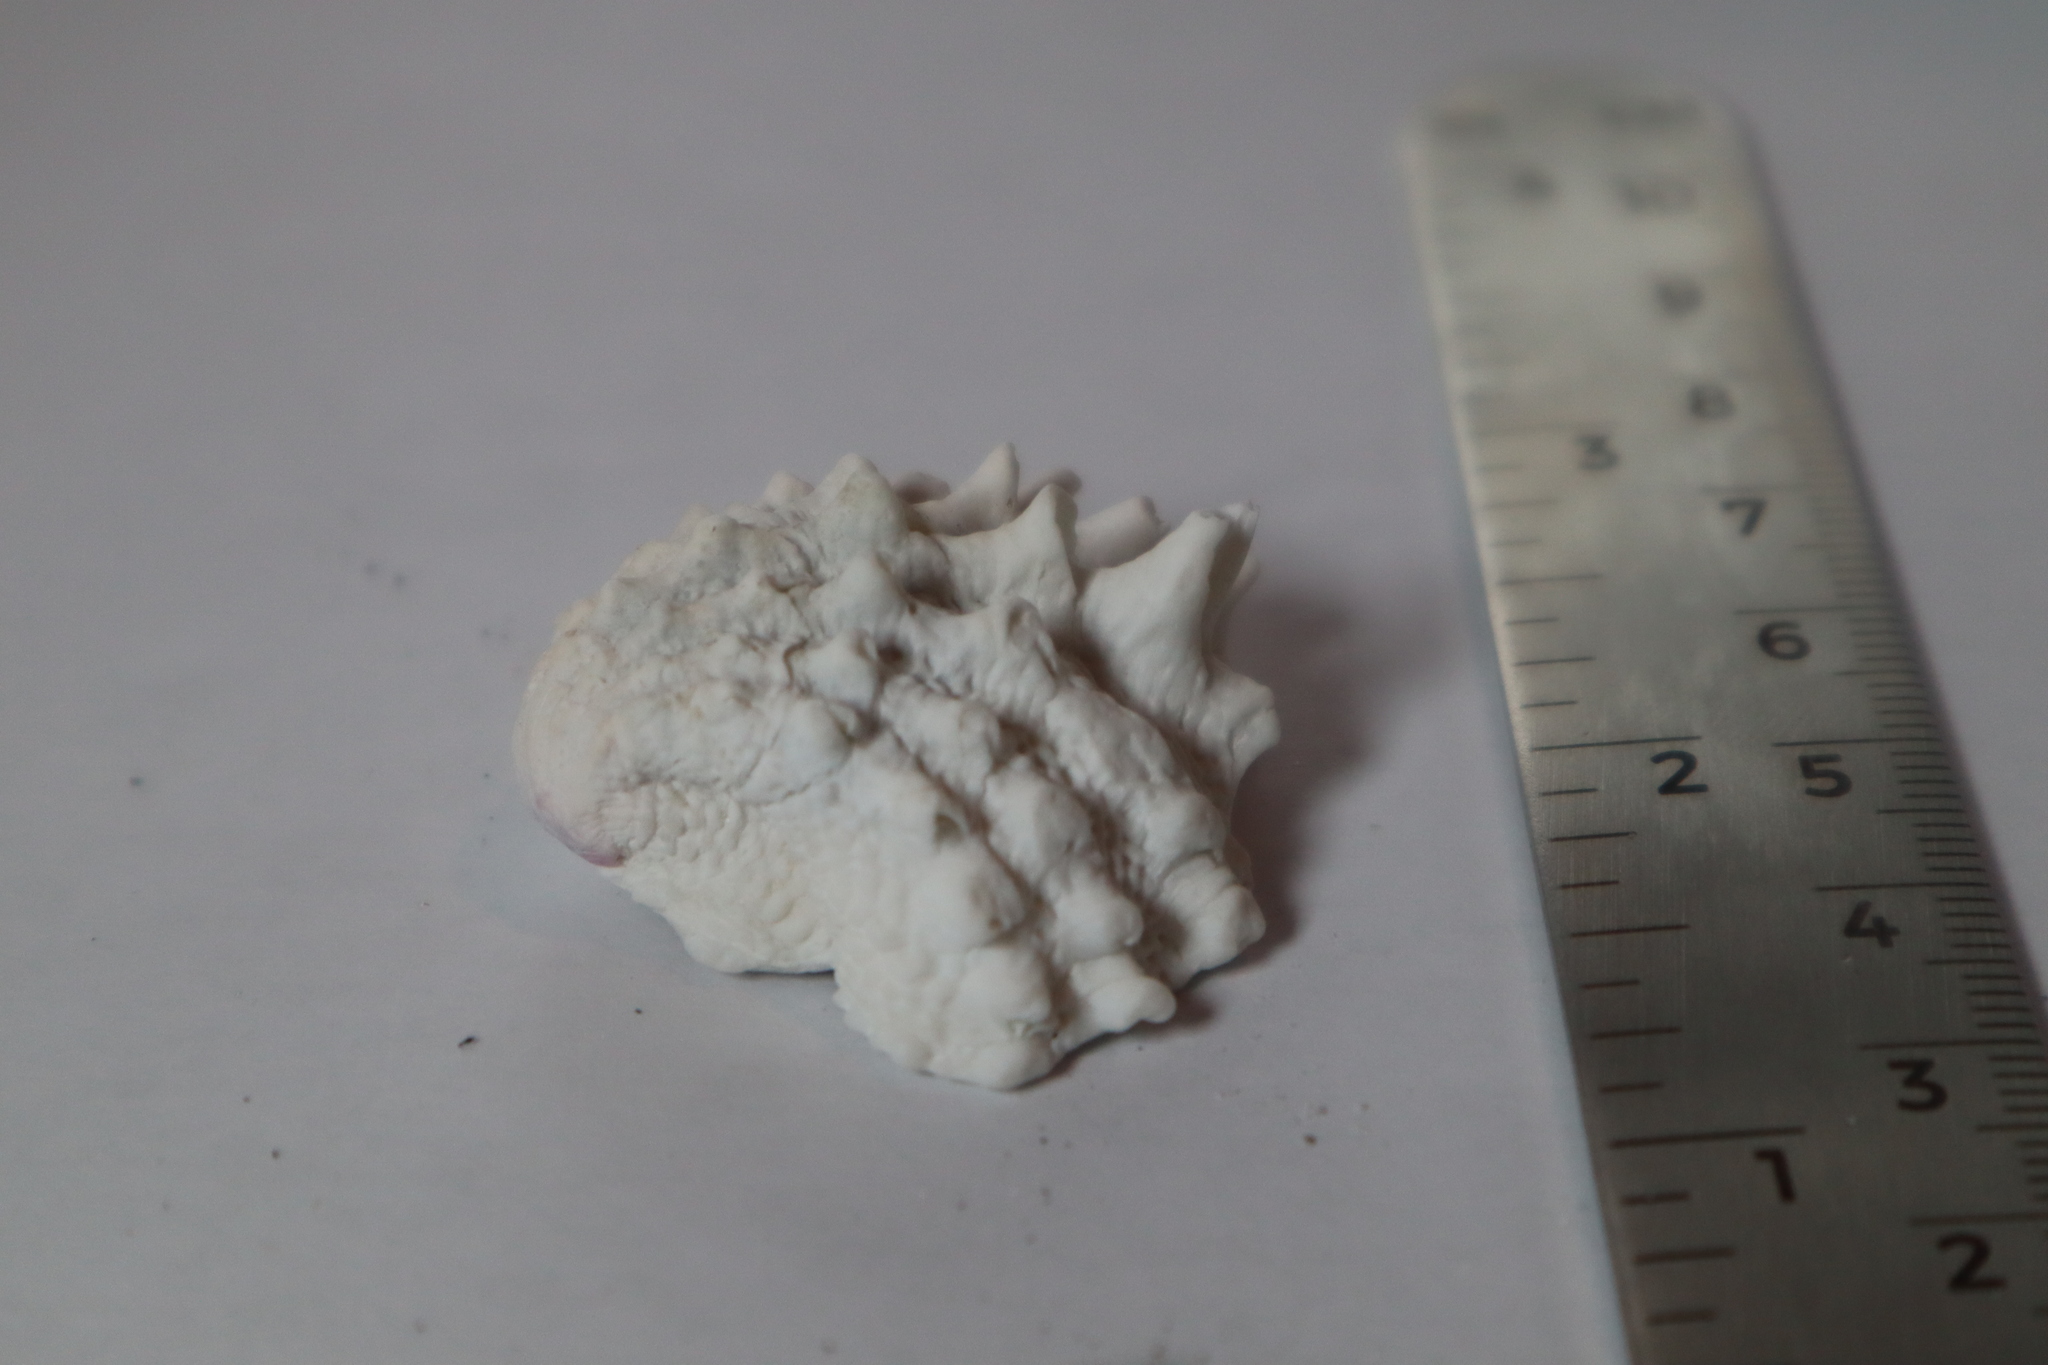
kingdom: Animalia
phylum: Mollusca
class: Bivalvia
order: Venerida
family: Chamidae
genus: Arcinella
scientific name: Arcinella cornuta
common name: Florida spiny jewel box
